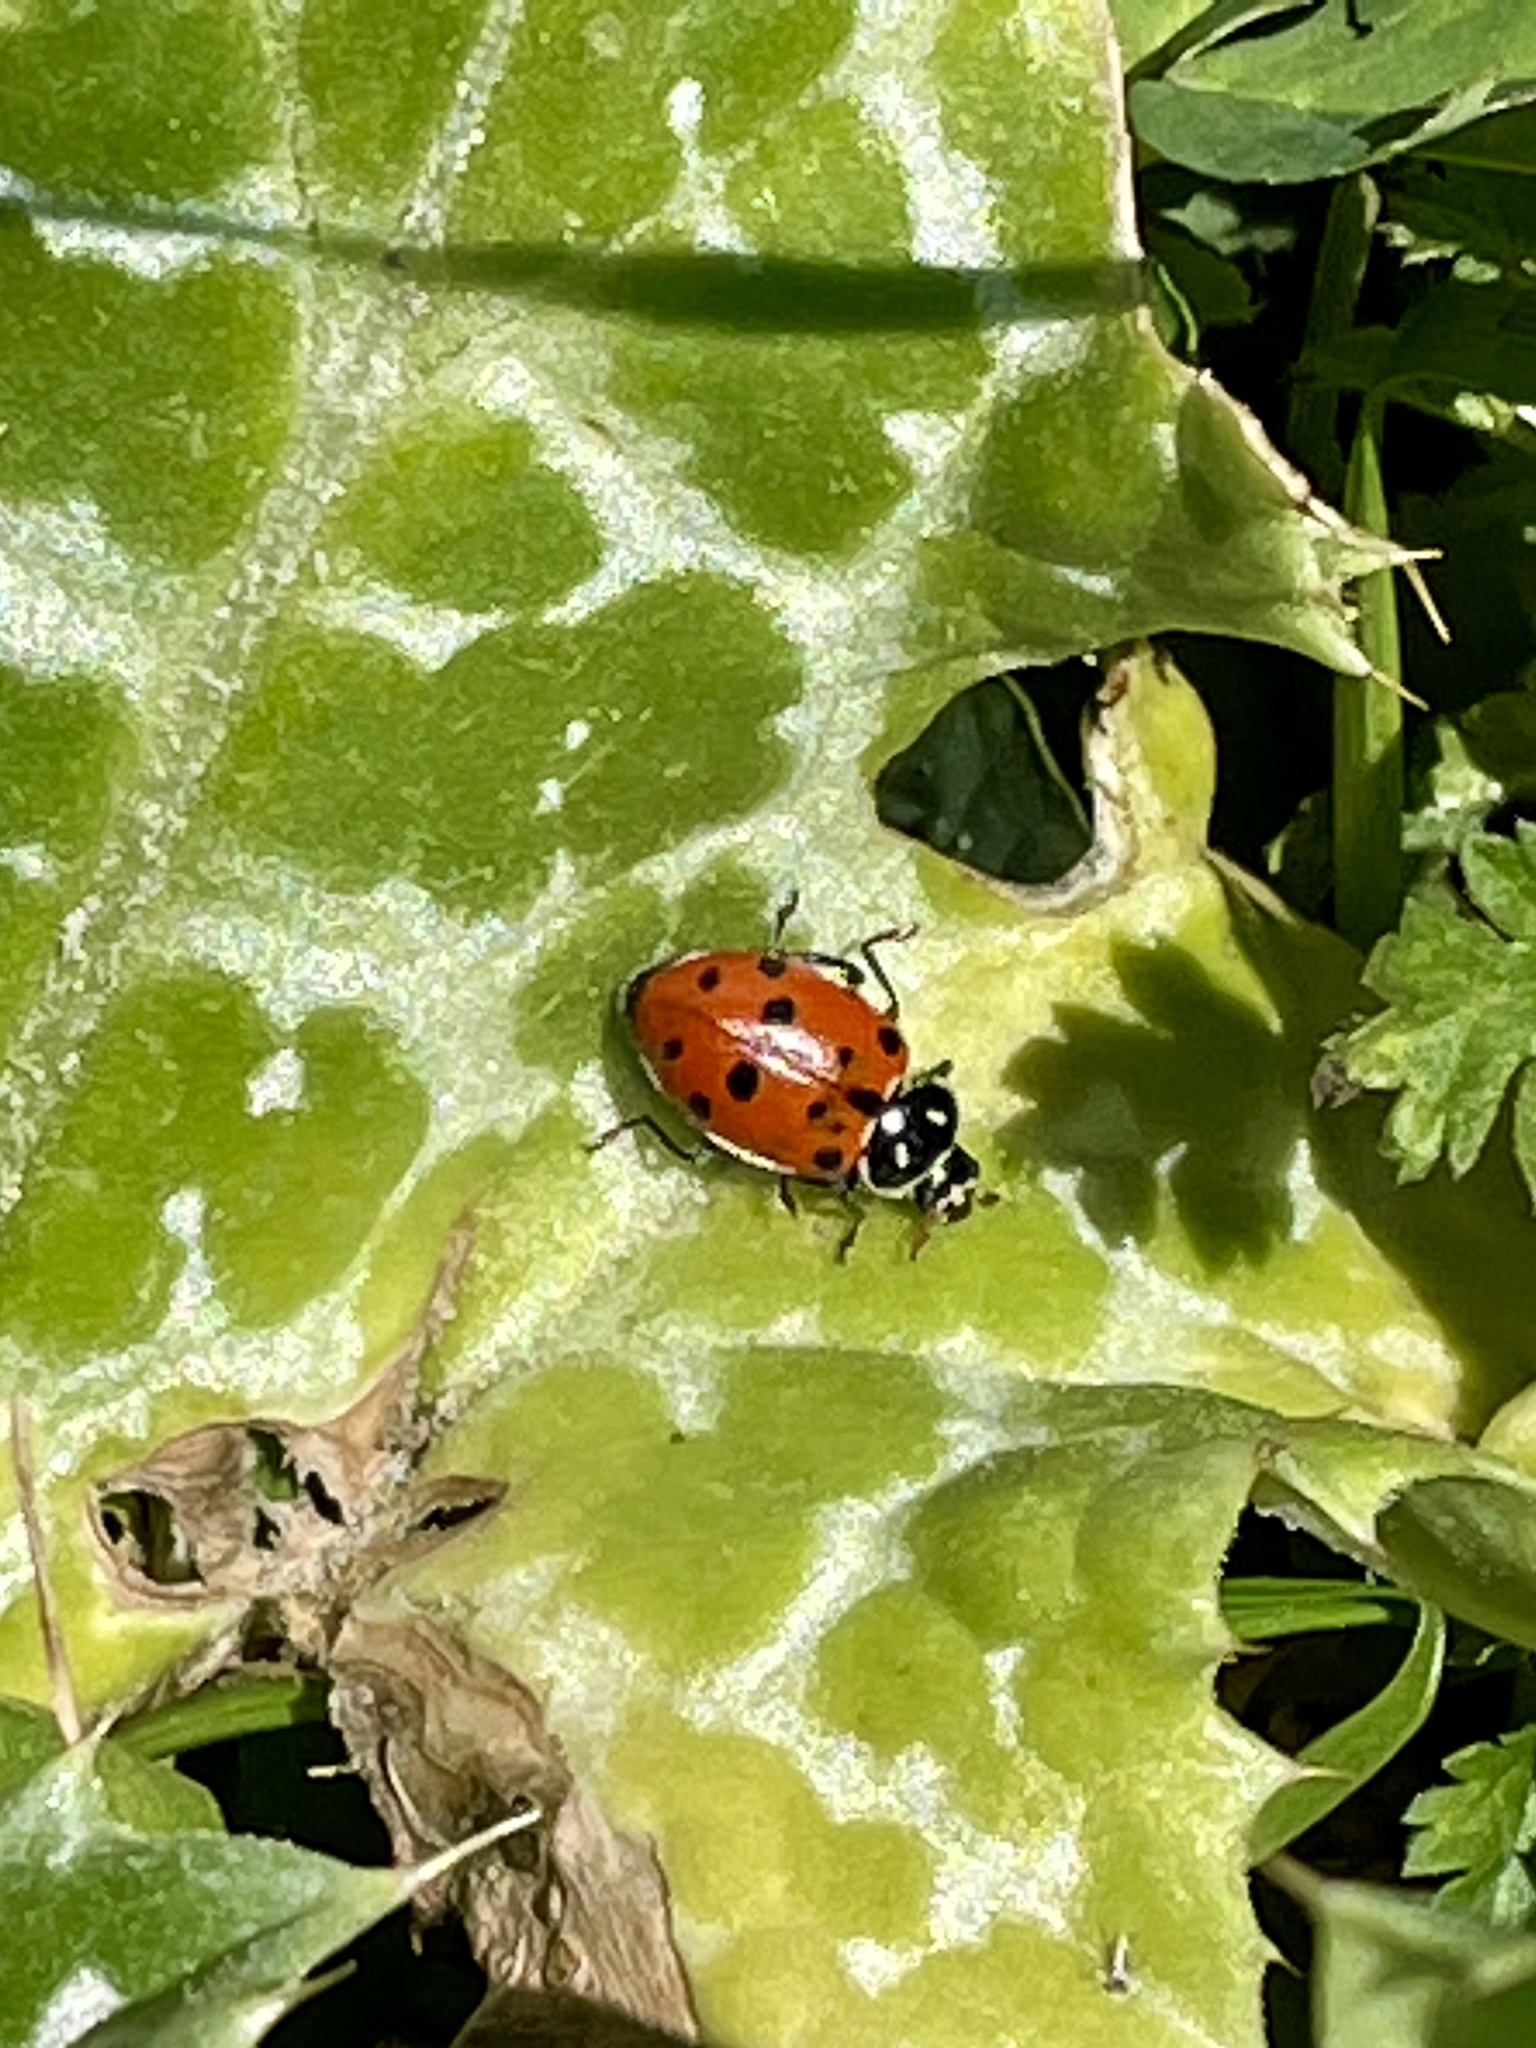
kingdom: Animalia
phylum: Arthropoda
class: Insecta
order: Coleoptera
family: Coccinellidae
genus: Hippodamia
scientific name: Hippodamia convergens
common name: Convergent lady beetle
